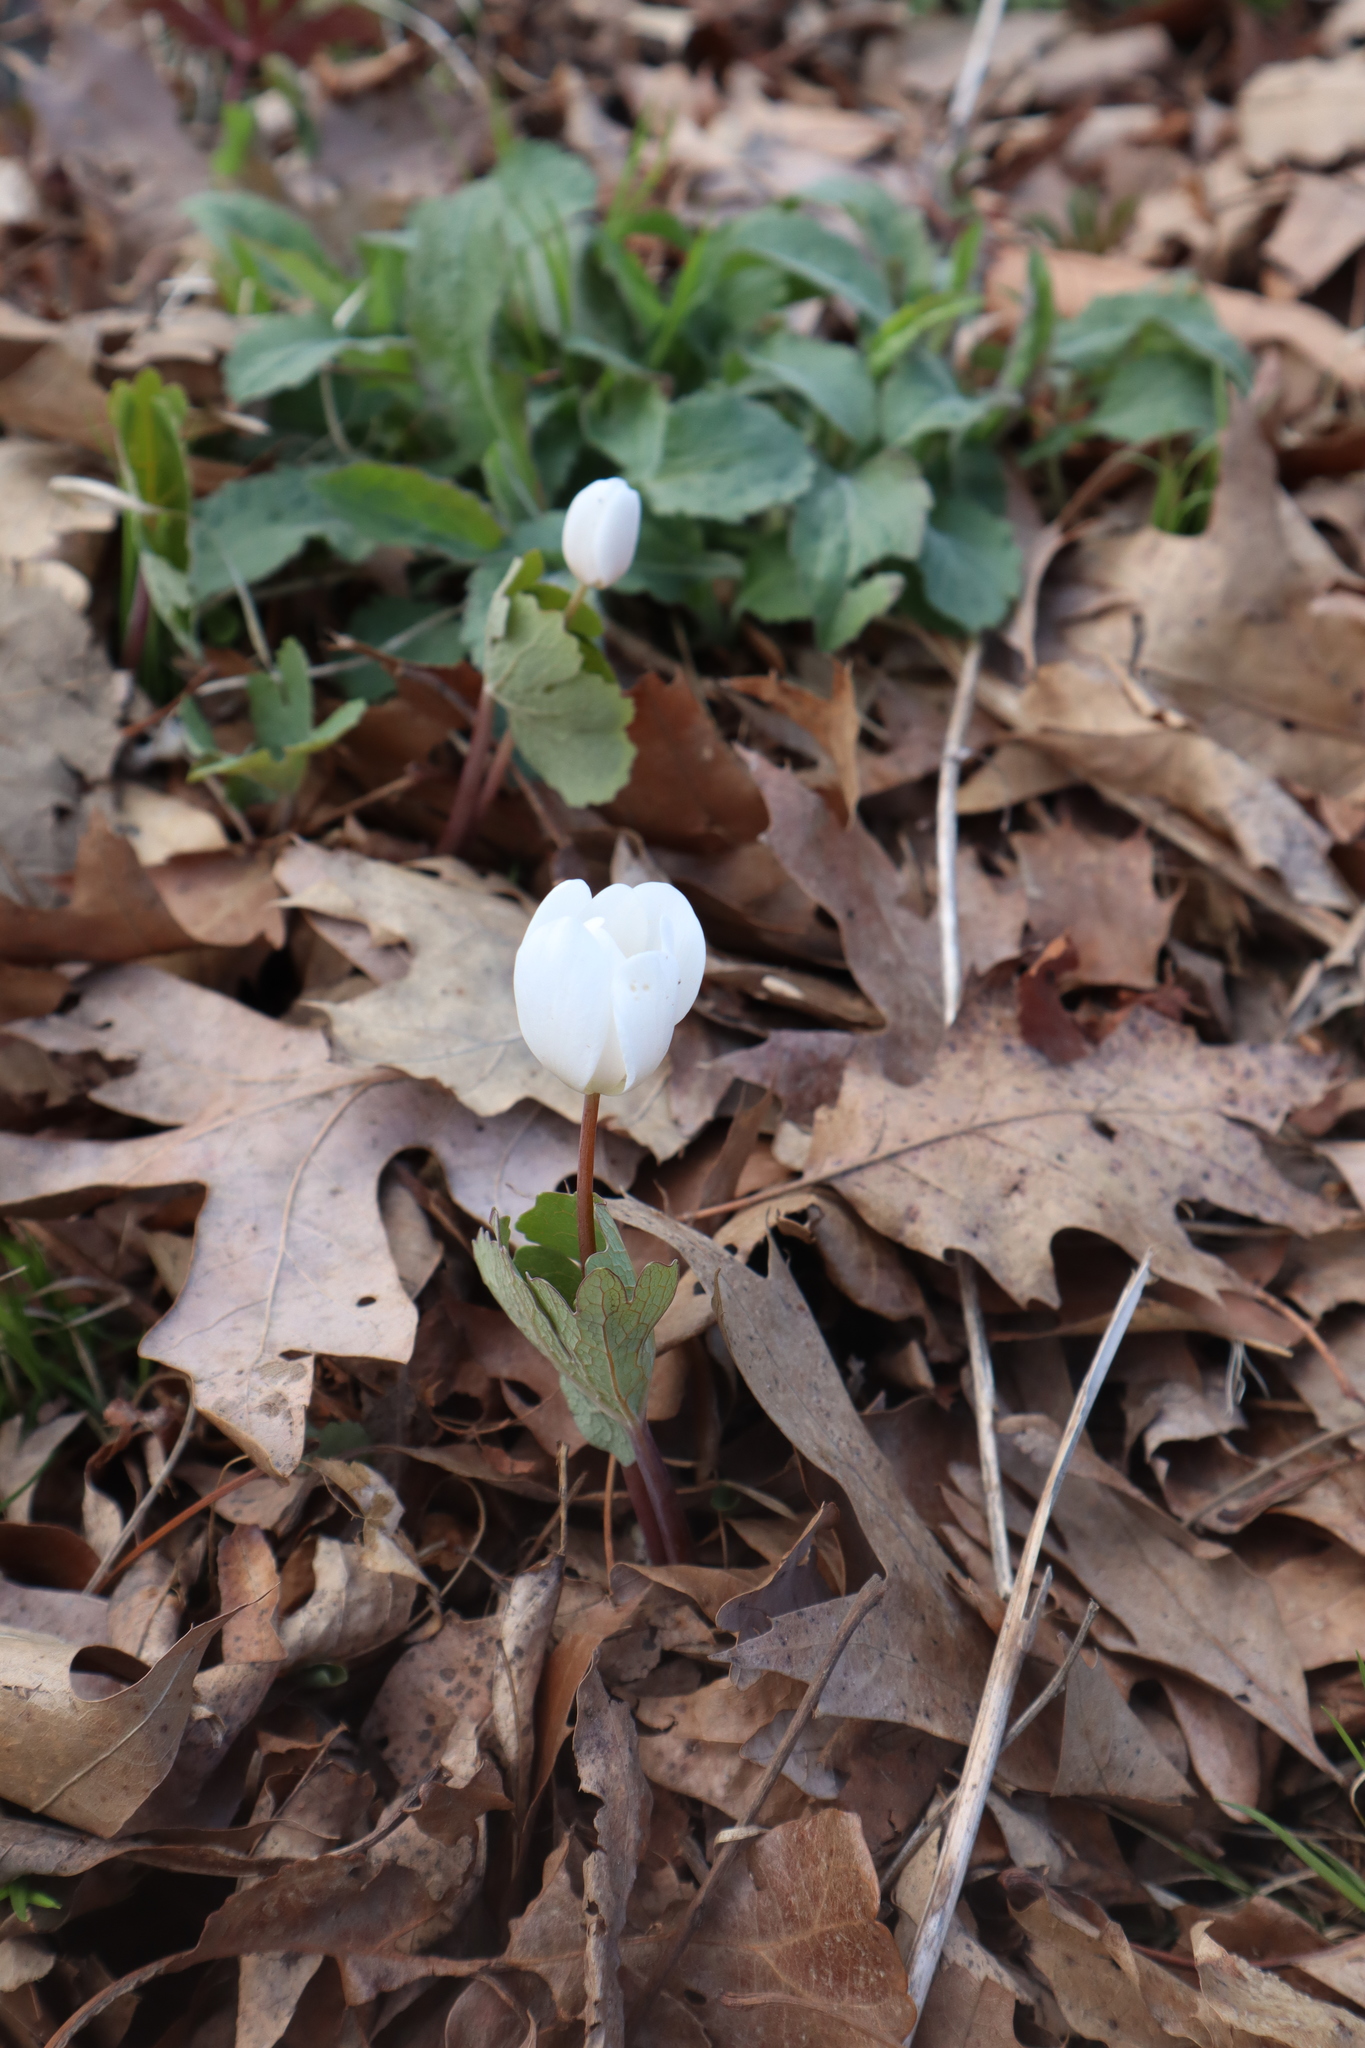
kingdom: Plantae
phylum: Tracheophyta
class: Magnoliopsida
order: Ranunculales
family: Papaveraceae
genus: Sanguinaria
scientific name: Sanguinaria canadensis
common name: Bloodroot
